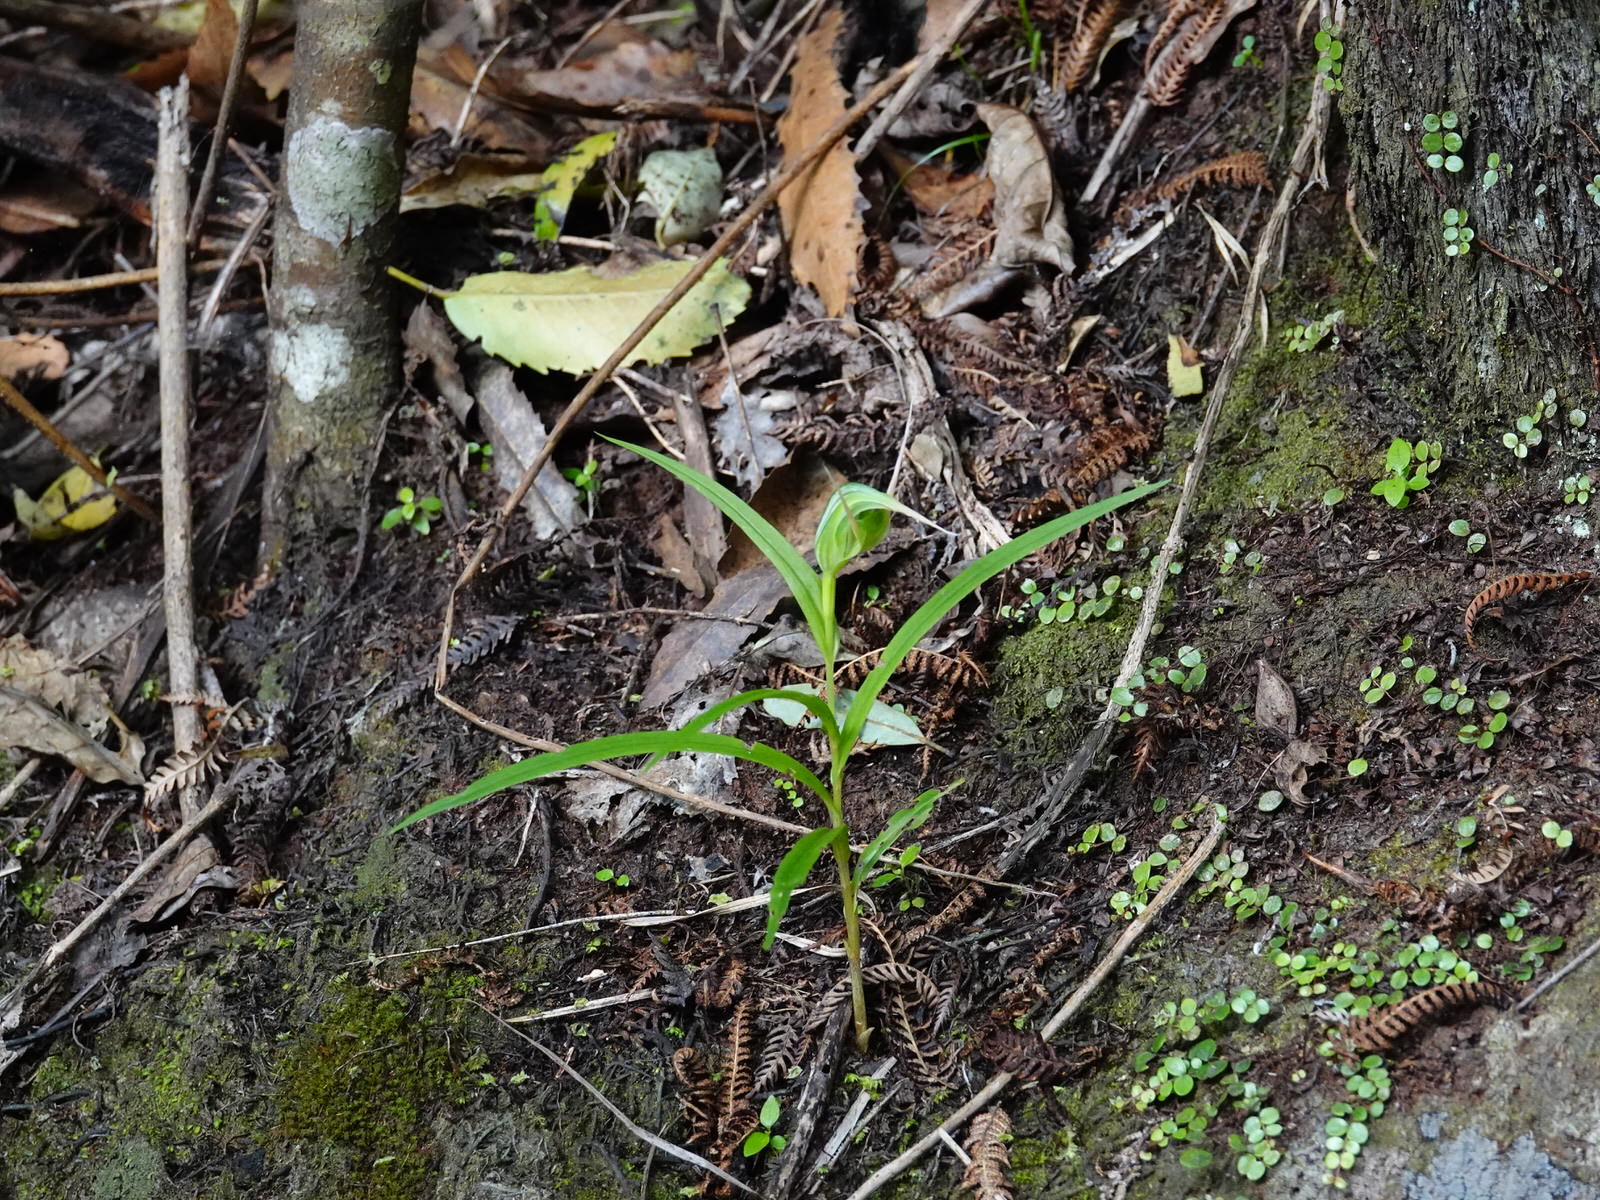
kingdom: Plantae
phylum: Tracheophyta
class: Liliopsida
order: Asparagales
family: Orchidaceae
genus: Pterostylis
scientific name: Pterostylis banksii
